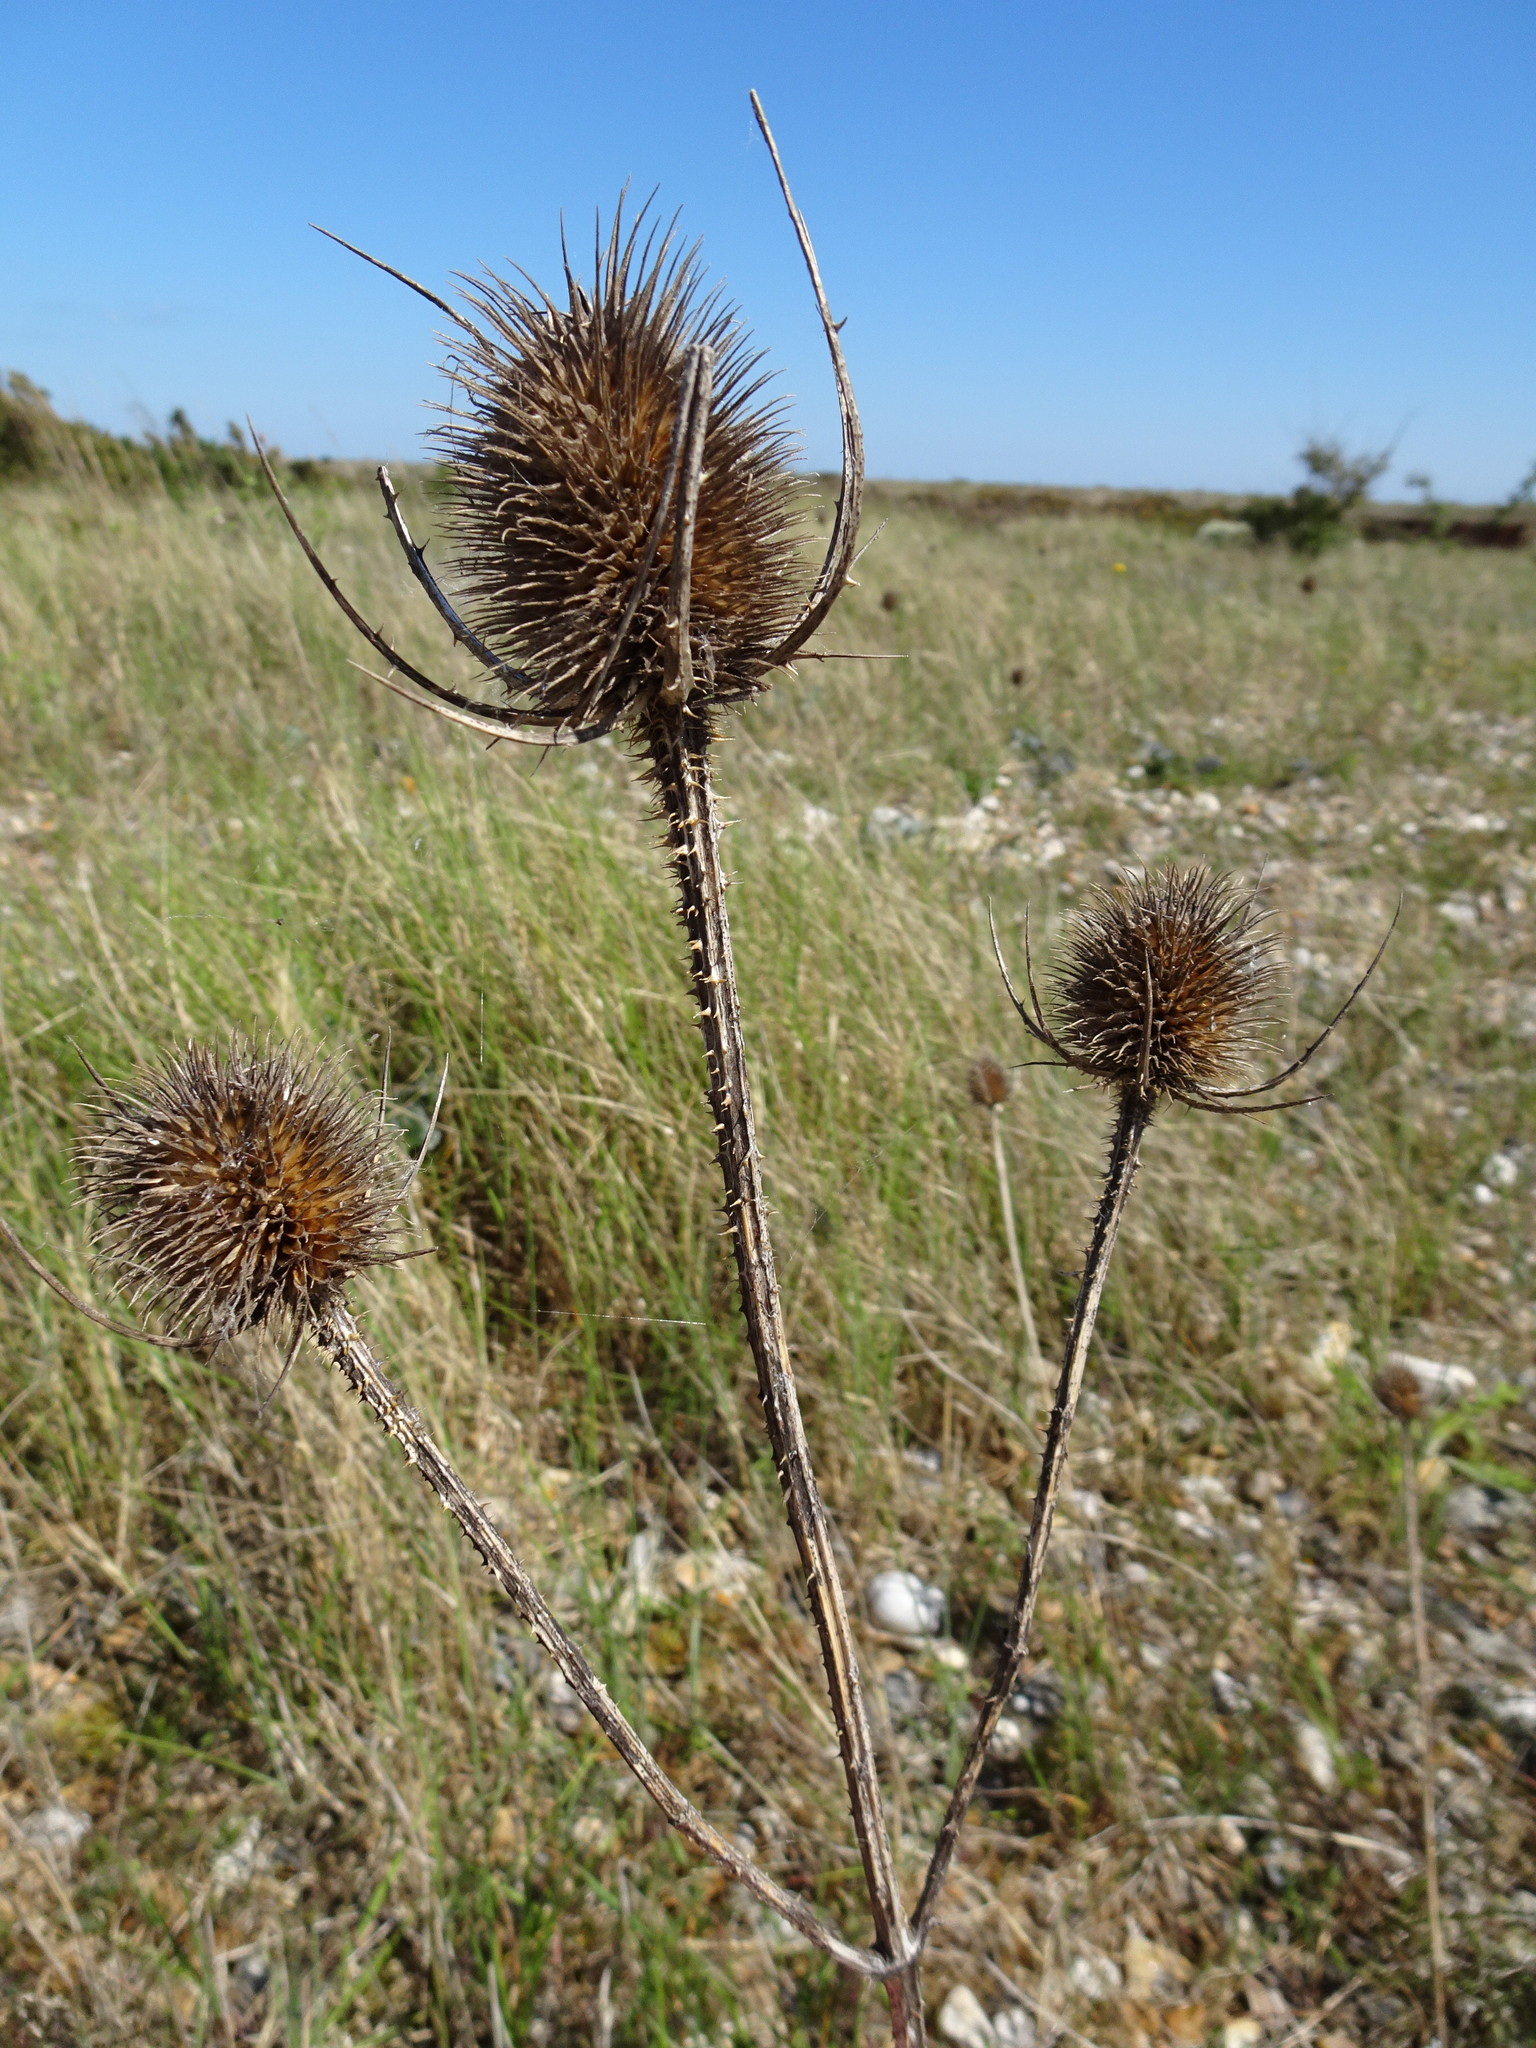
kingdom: Plantae
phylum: Tracheophyta
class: Magnoliopsida
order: Dipsacales
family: Caprifoliaceae
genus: Dipsacus
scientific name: Dipsacus fullonum
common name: Teasel
